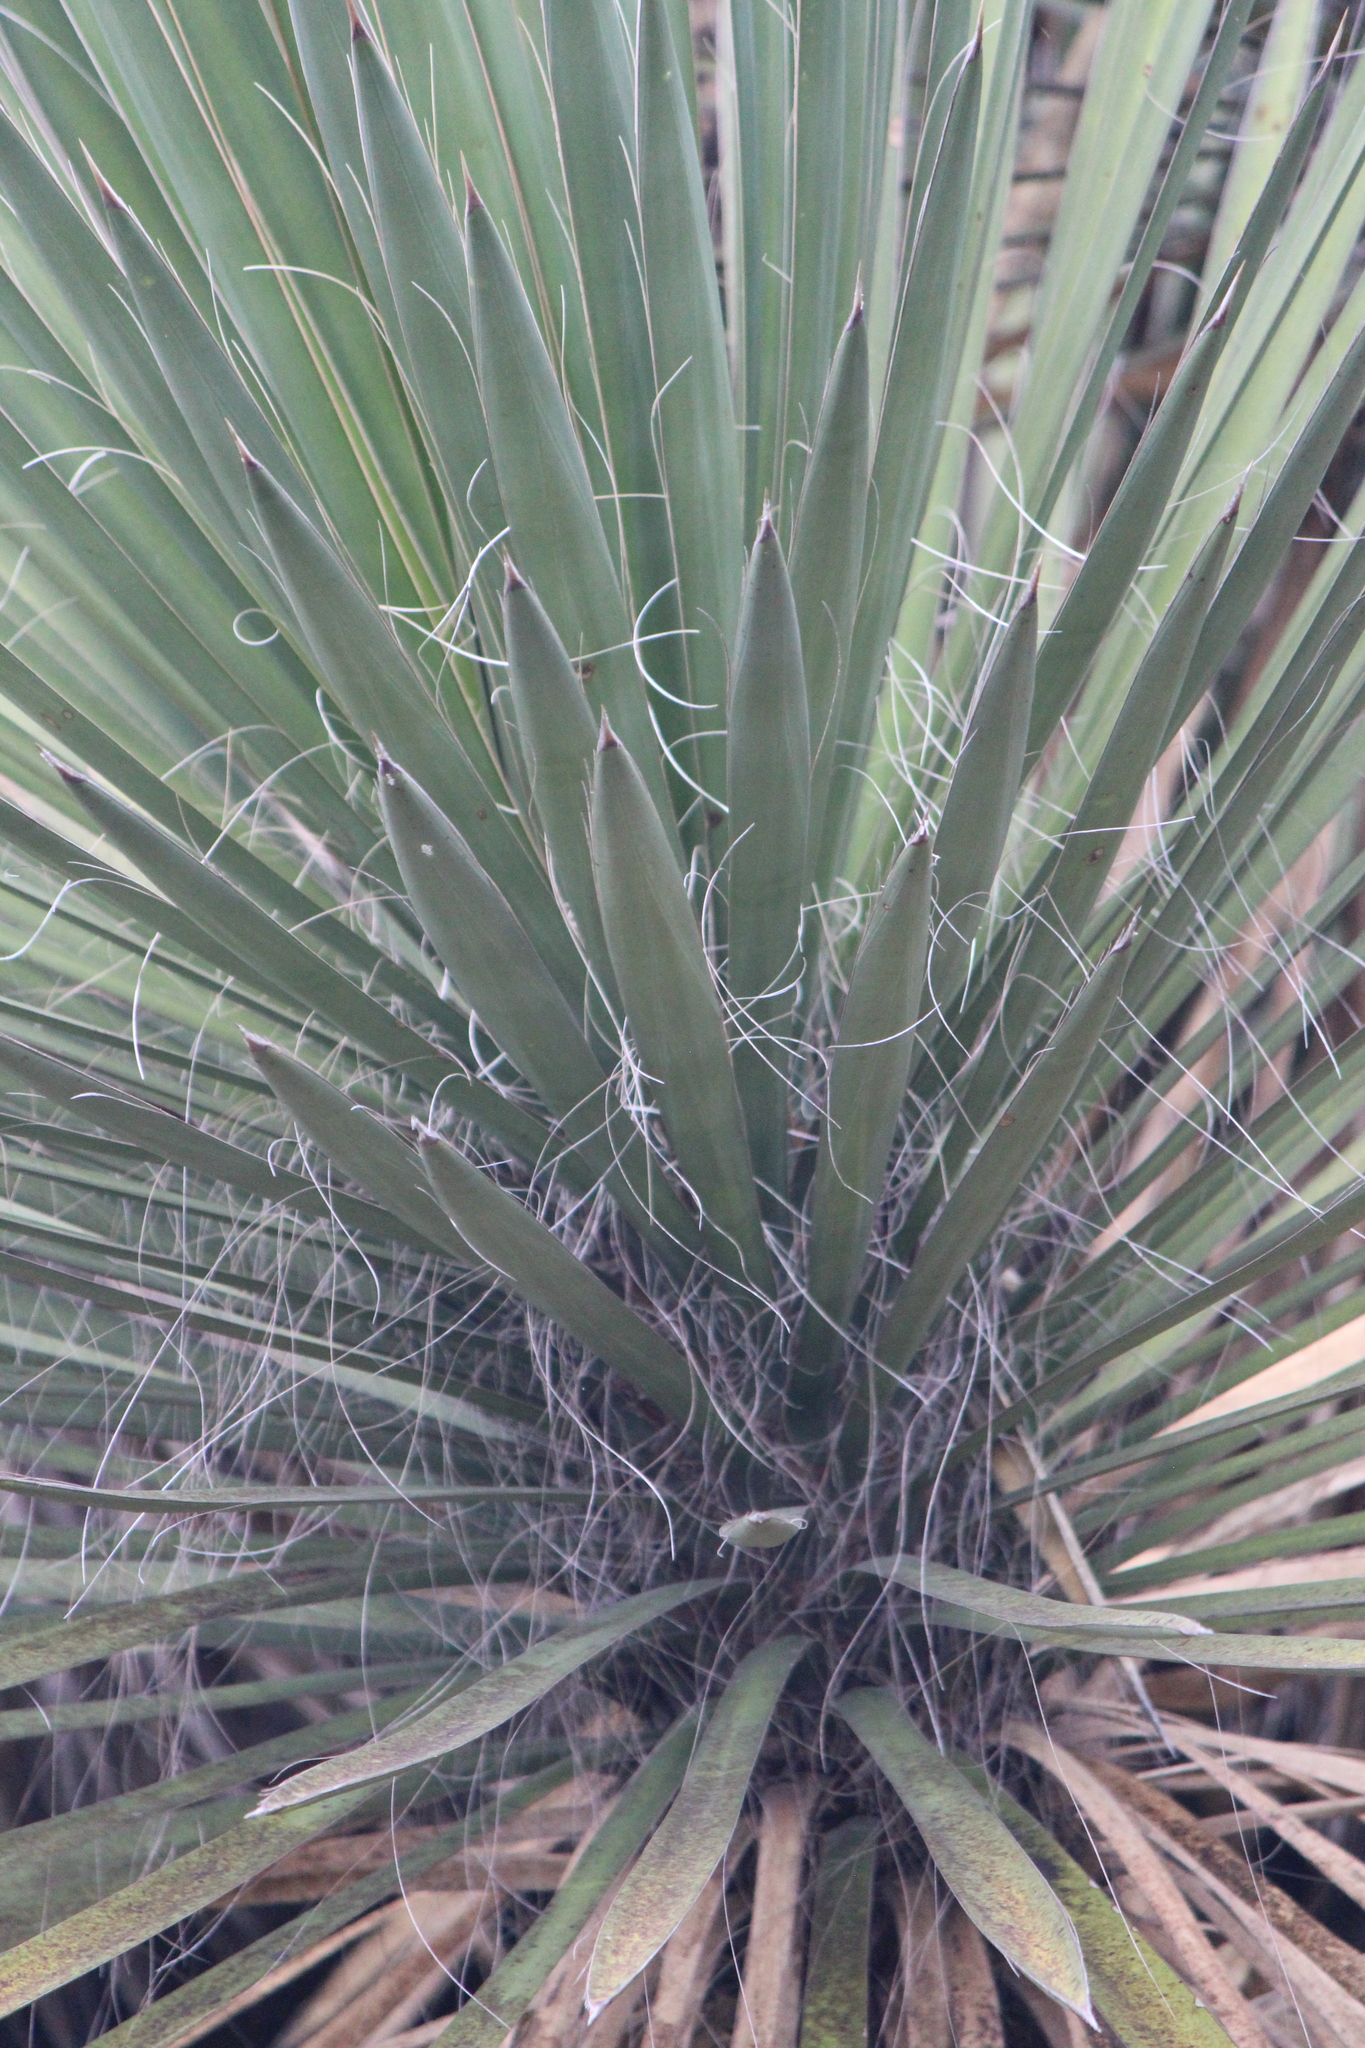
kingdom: Plantae
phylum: Tracheophyta
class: Liliopsida
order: Asparagales
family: Asparagaceae
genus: Yucca
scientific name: Yucca filifera
